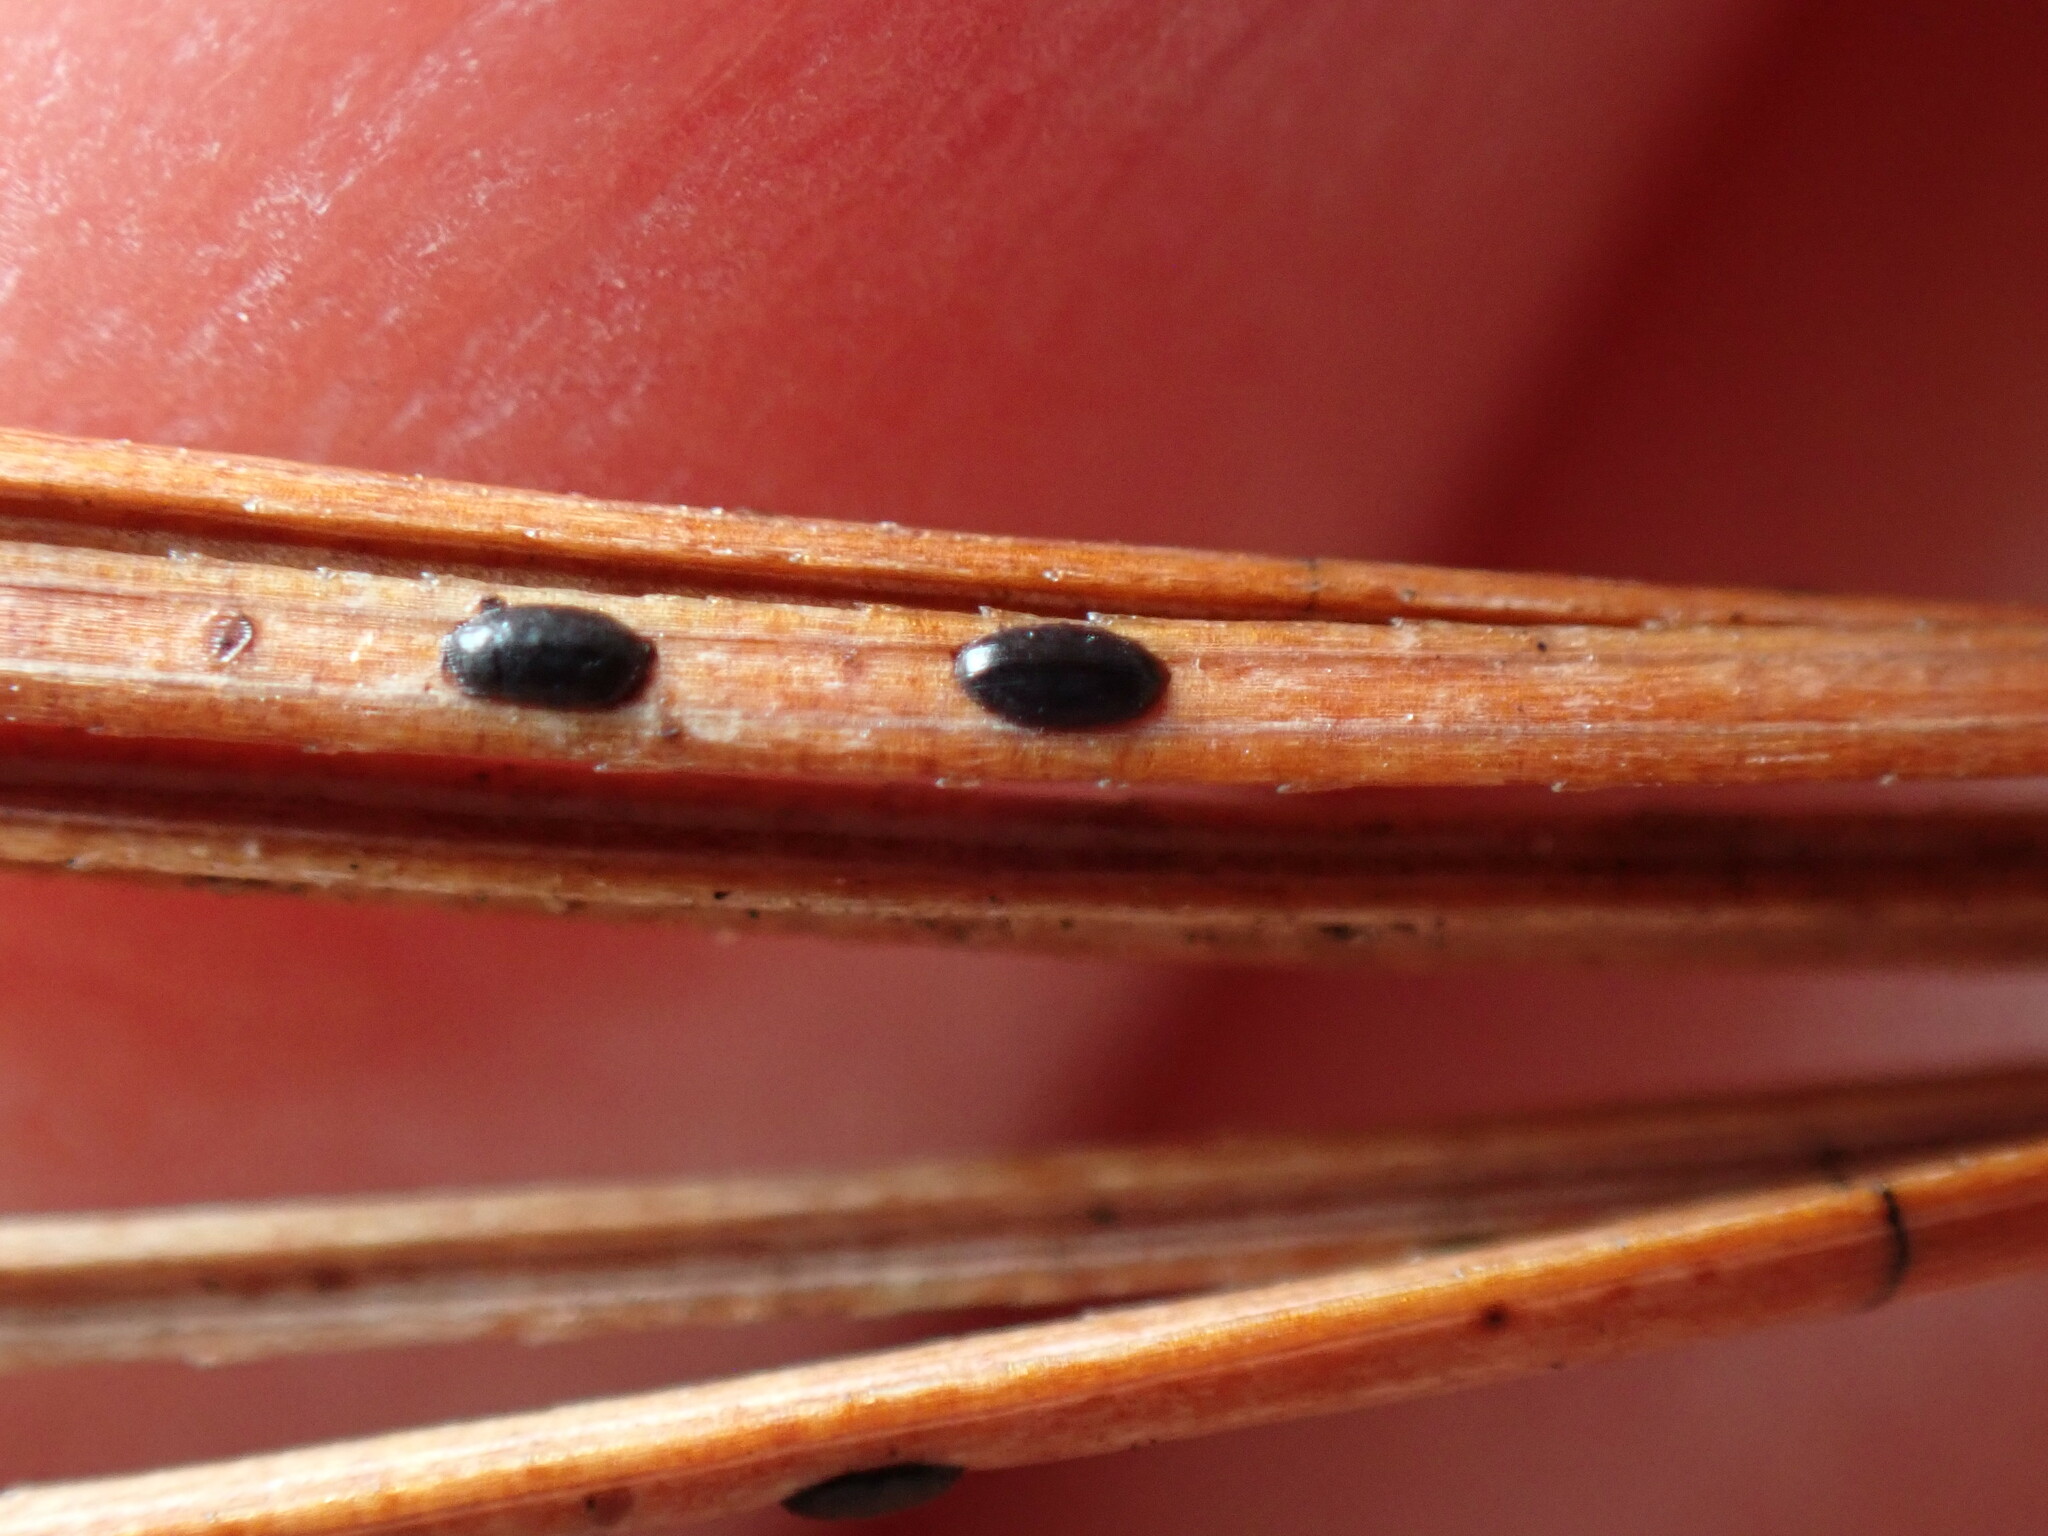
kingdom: Fungi
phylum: Ascomycota
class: Leotiomycetes
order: Rhytismatales
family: Rhytismataceae
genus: Lophodermium
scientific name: Lophodermium pinastri
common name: Pine needle split
